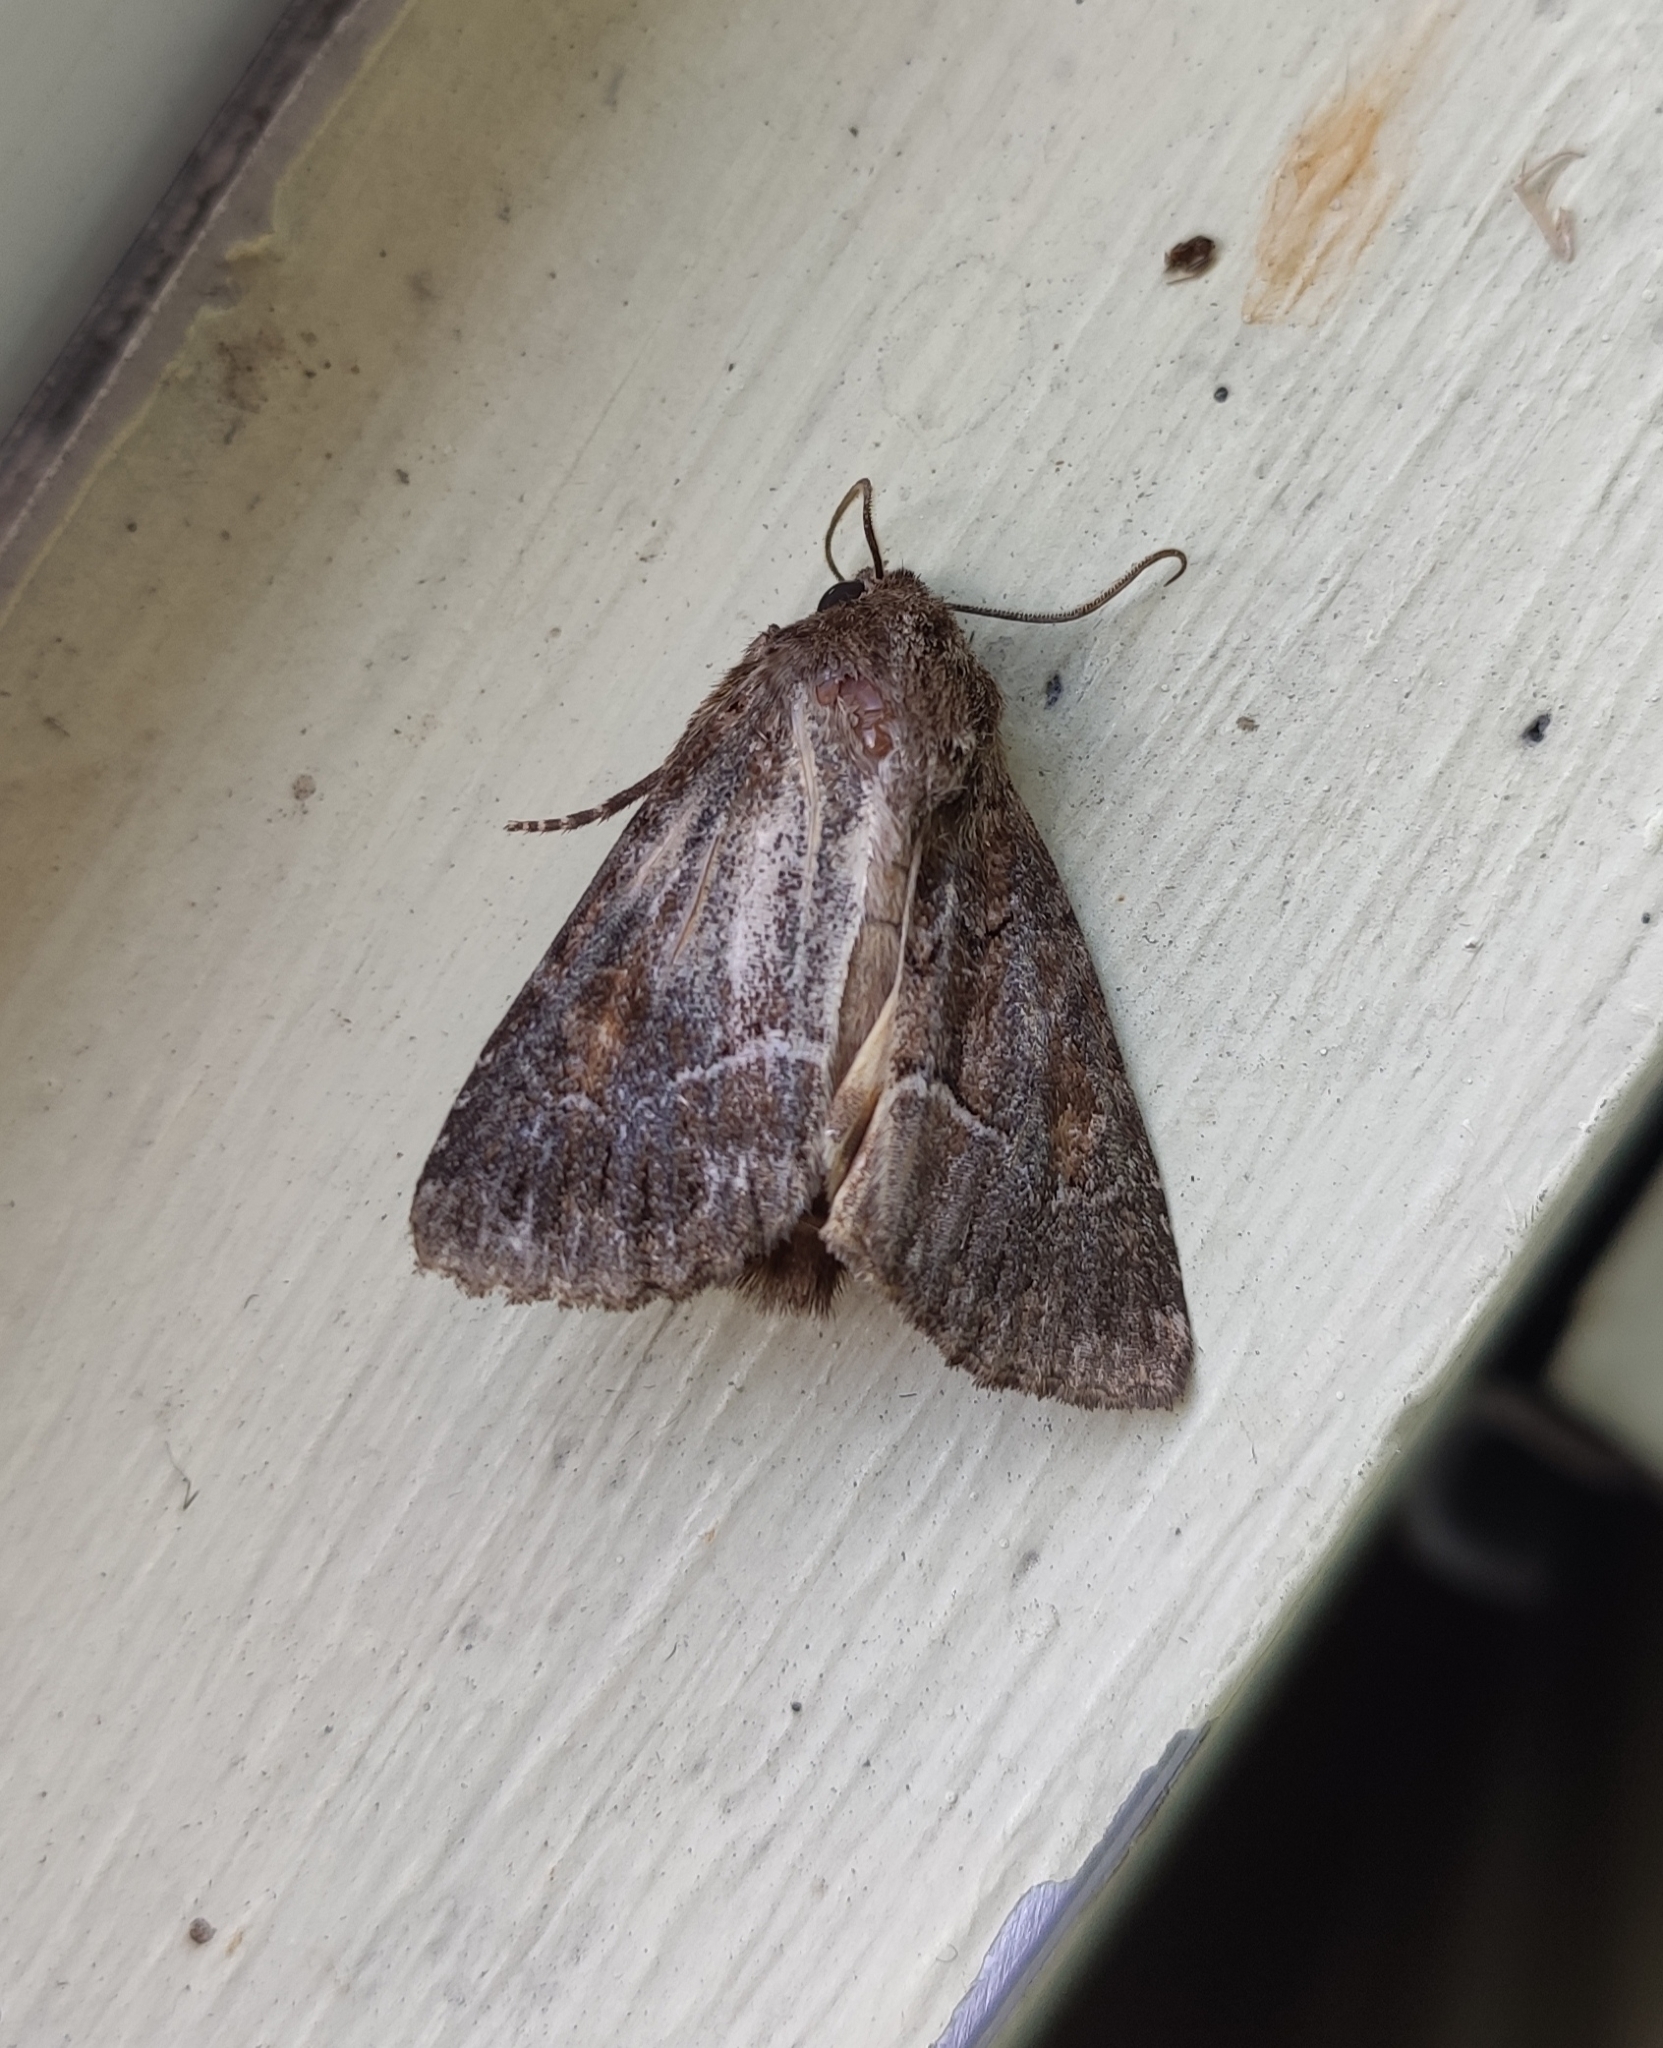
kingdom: Animalia
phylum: Arthropoda
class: Insecta
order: Lepidoptera
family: Noctuidae
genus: Thalpophila
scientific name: Thalpophila matura
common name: Straw underwing
